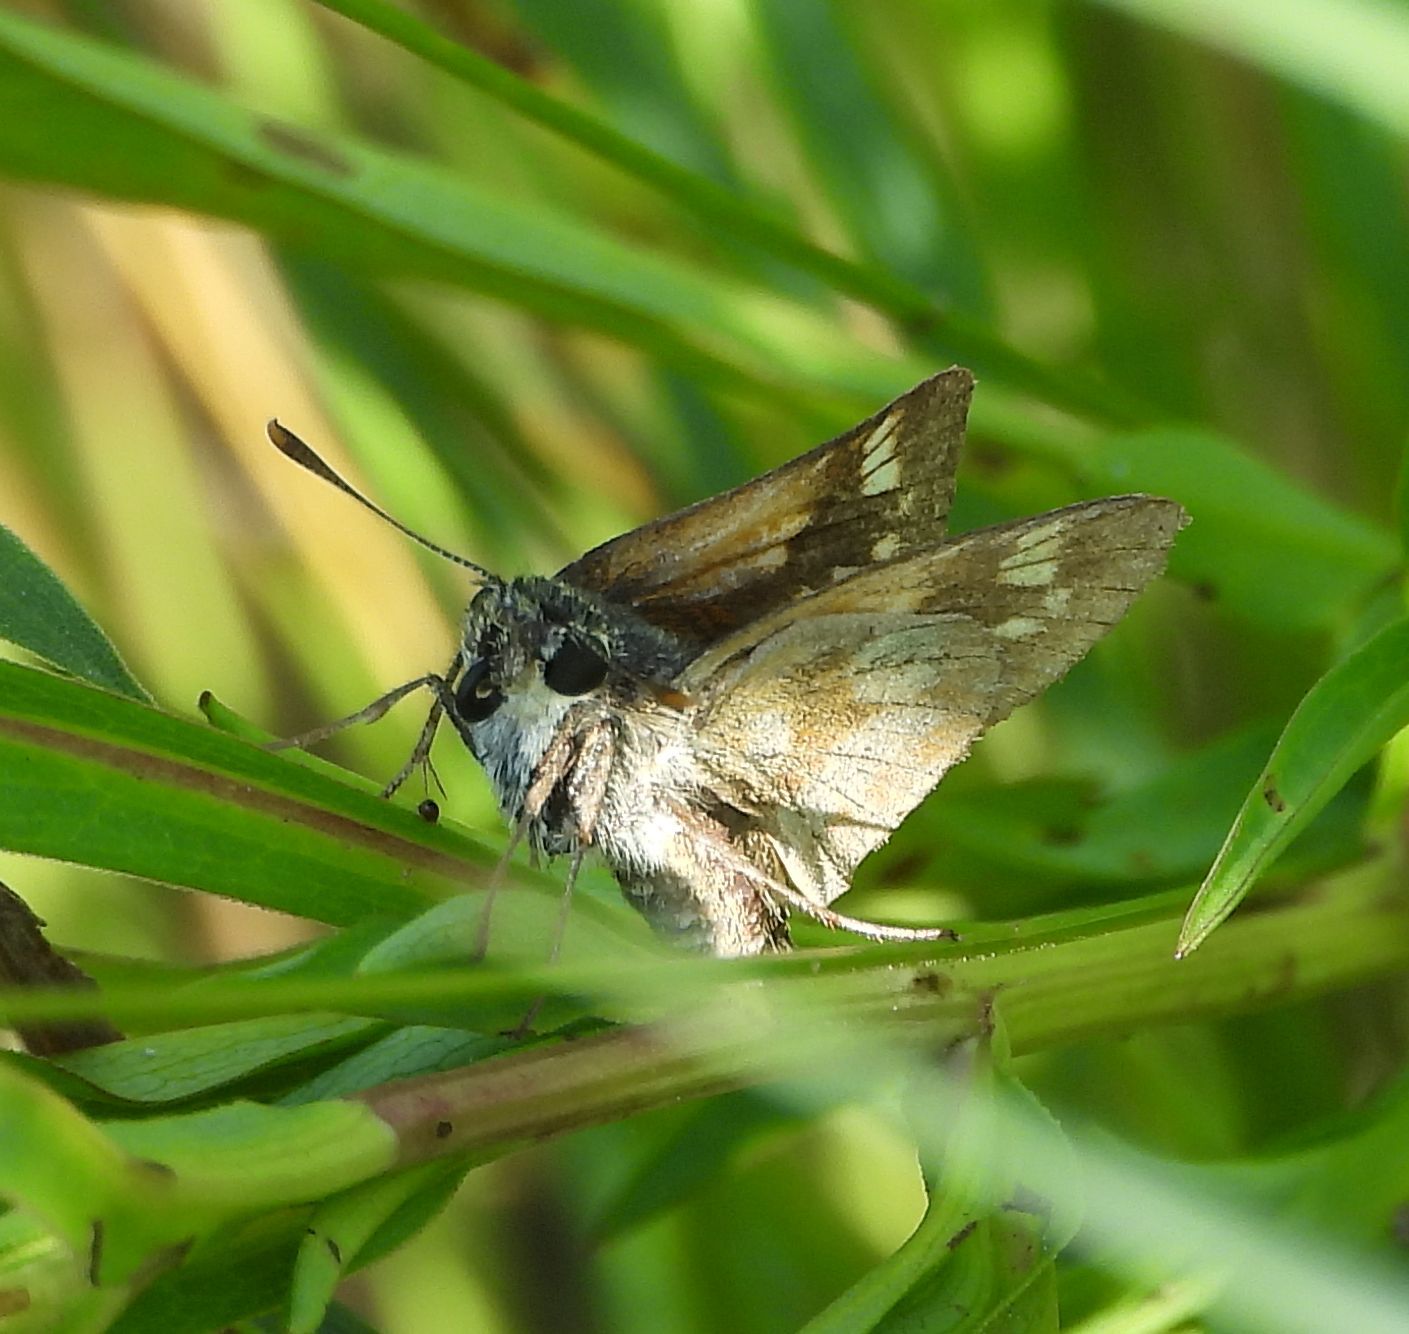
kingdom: Animalia
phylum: Arthropoda
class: Insecta
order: Lepidoptera
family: Hesperiidae
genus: Polites
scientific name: Polites mystic
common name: Long dash
